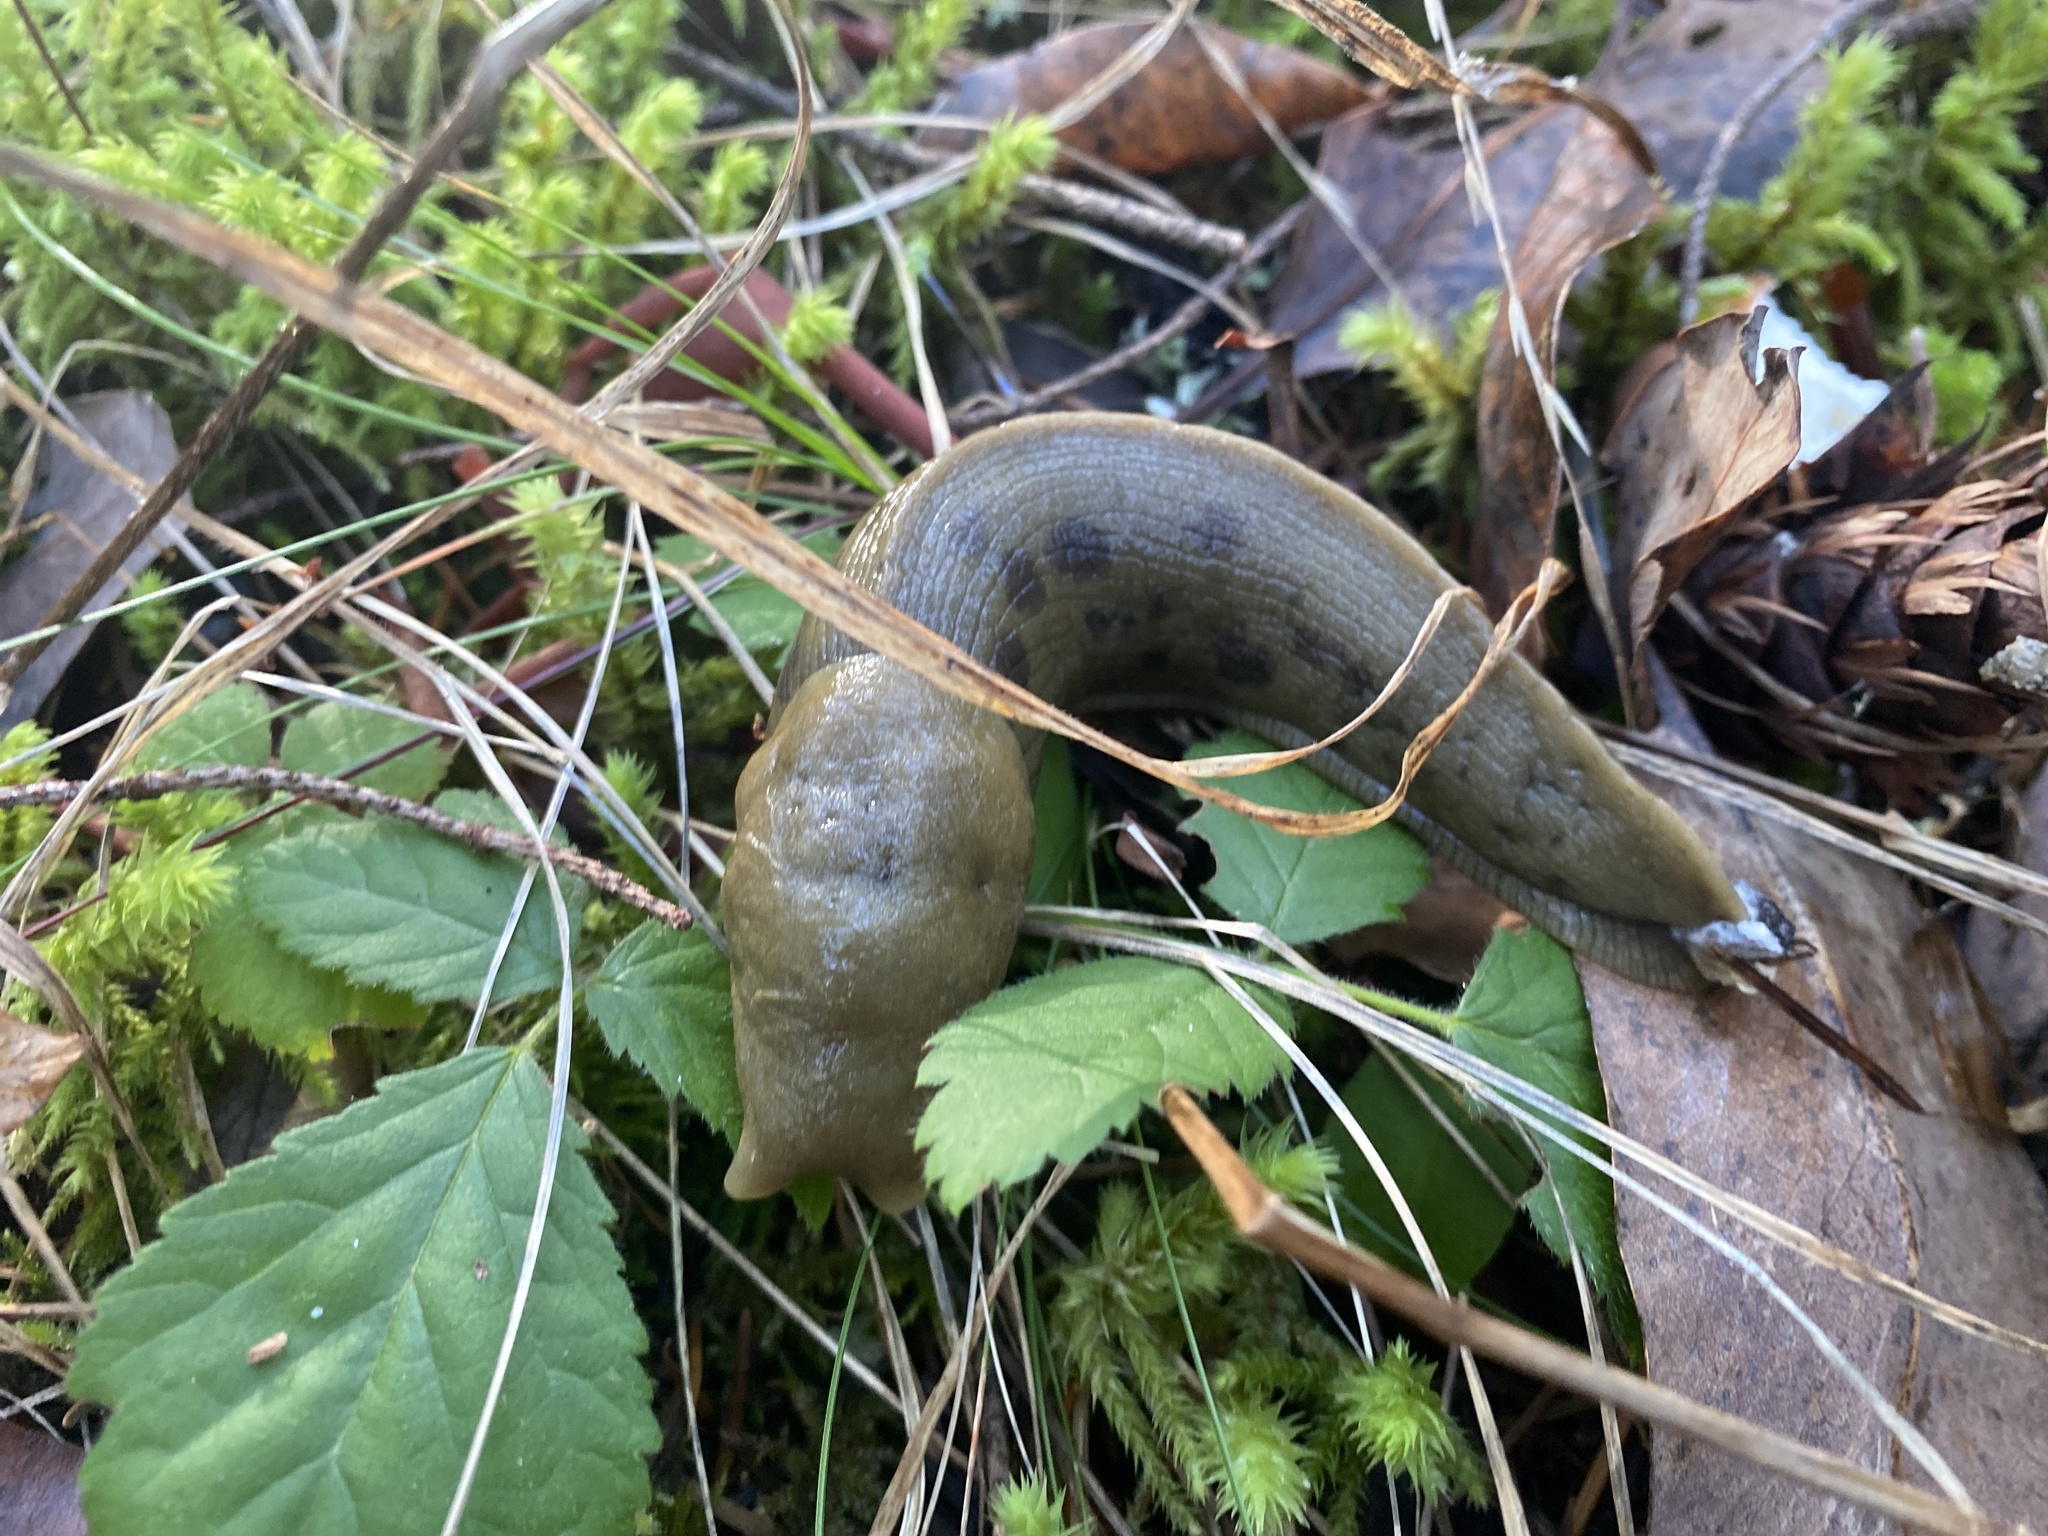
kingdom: Animalia
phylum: Mollusca
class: Gastropoda
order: Stylommatophora
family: Ariolimacidae
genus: Ariolimax
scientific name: Ariolimax columbianus
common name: Pacific banana slug
